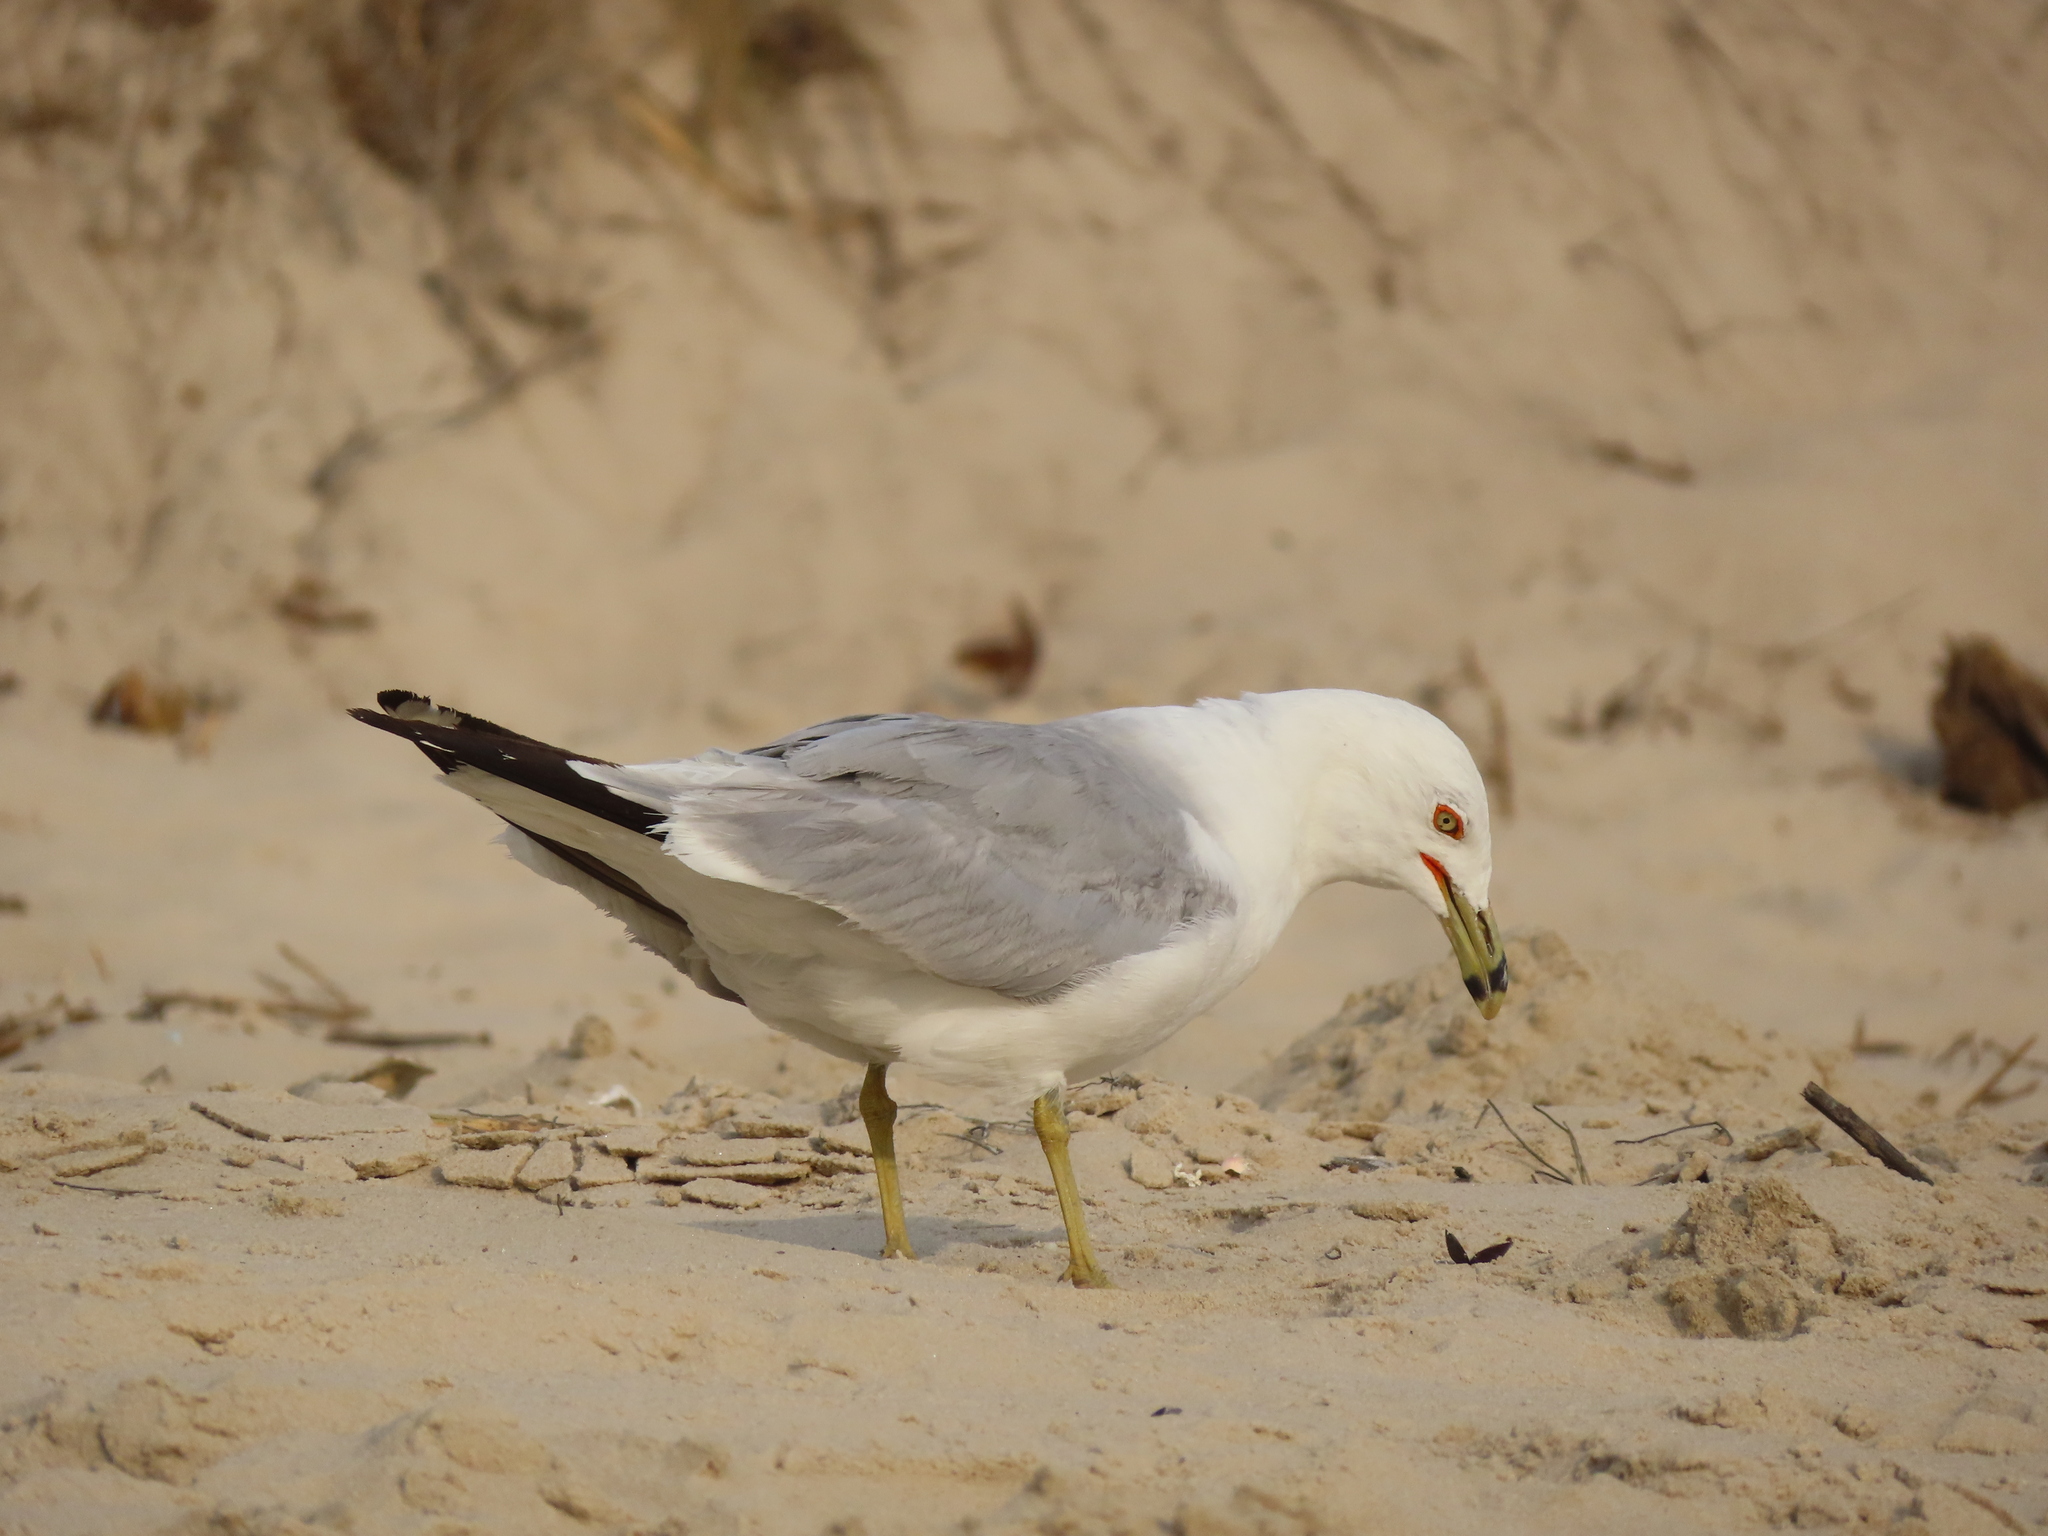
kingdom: Animalia
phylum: Chordata
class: Aves
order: Charadriiformes
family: Laridae
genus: Larus
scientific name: Larus delawarensis
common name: Ring-billed gull
